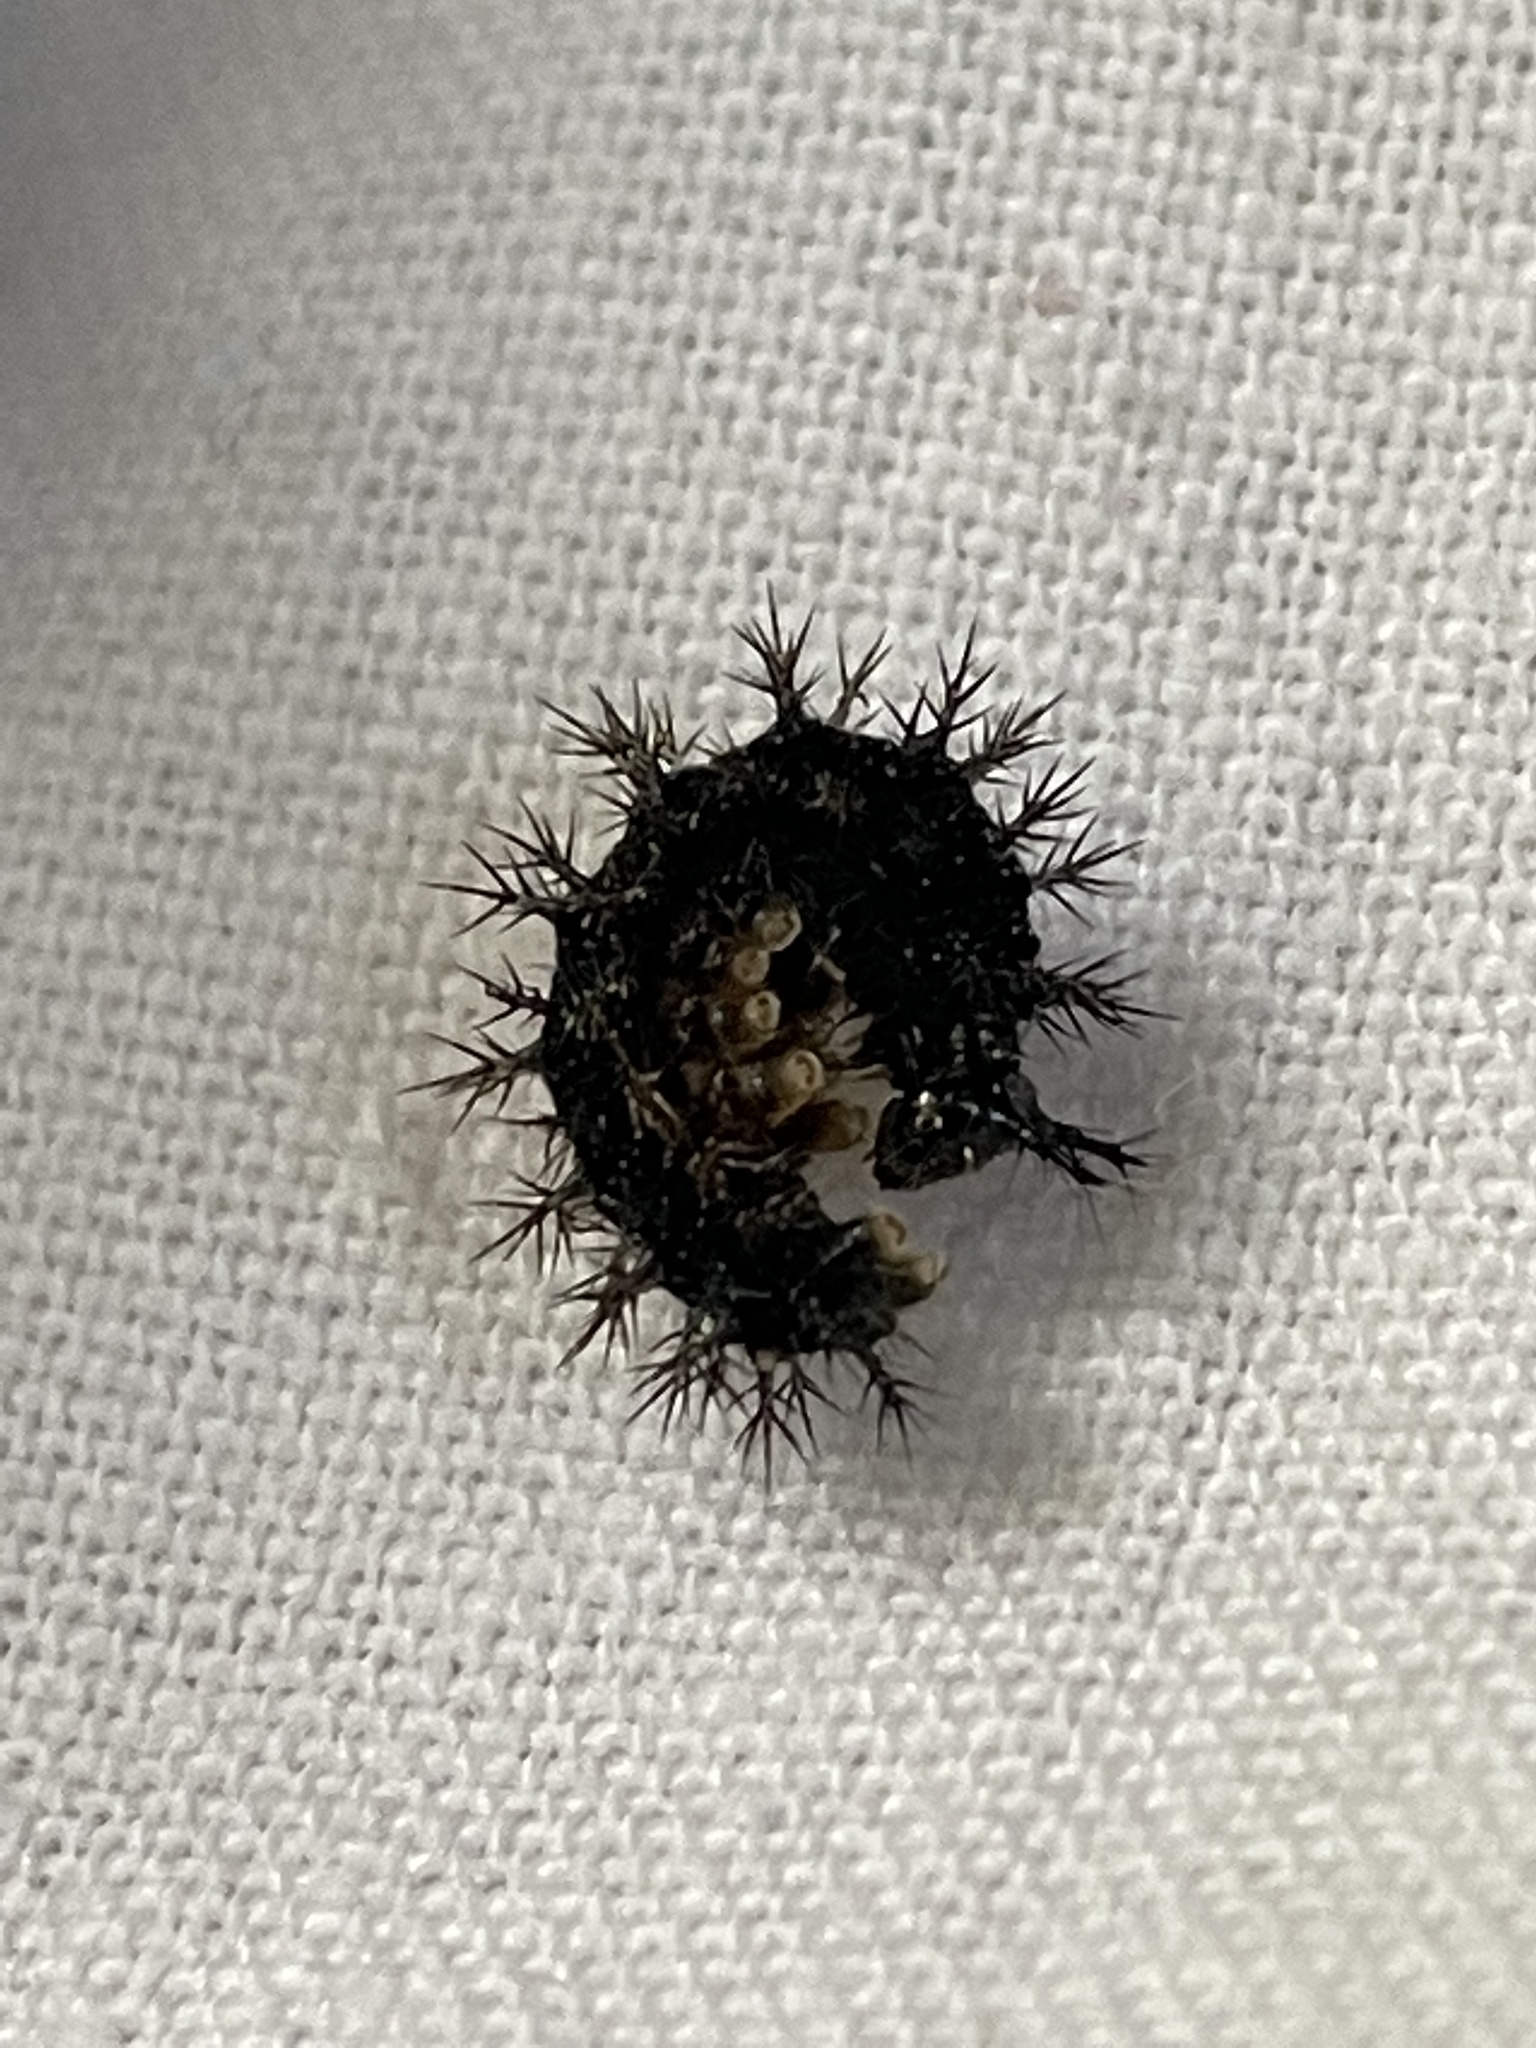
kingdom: Animalia
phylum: Arthropoda
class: Insecta
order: Lepidoptera
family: Nymphalidae
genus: Araschnia
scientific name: Araschnia levana
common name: Map butterfly
